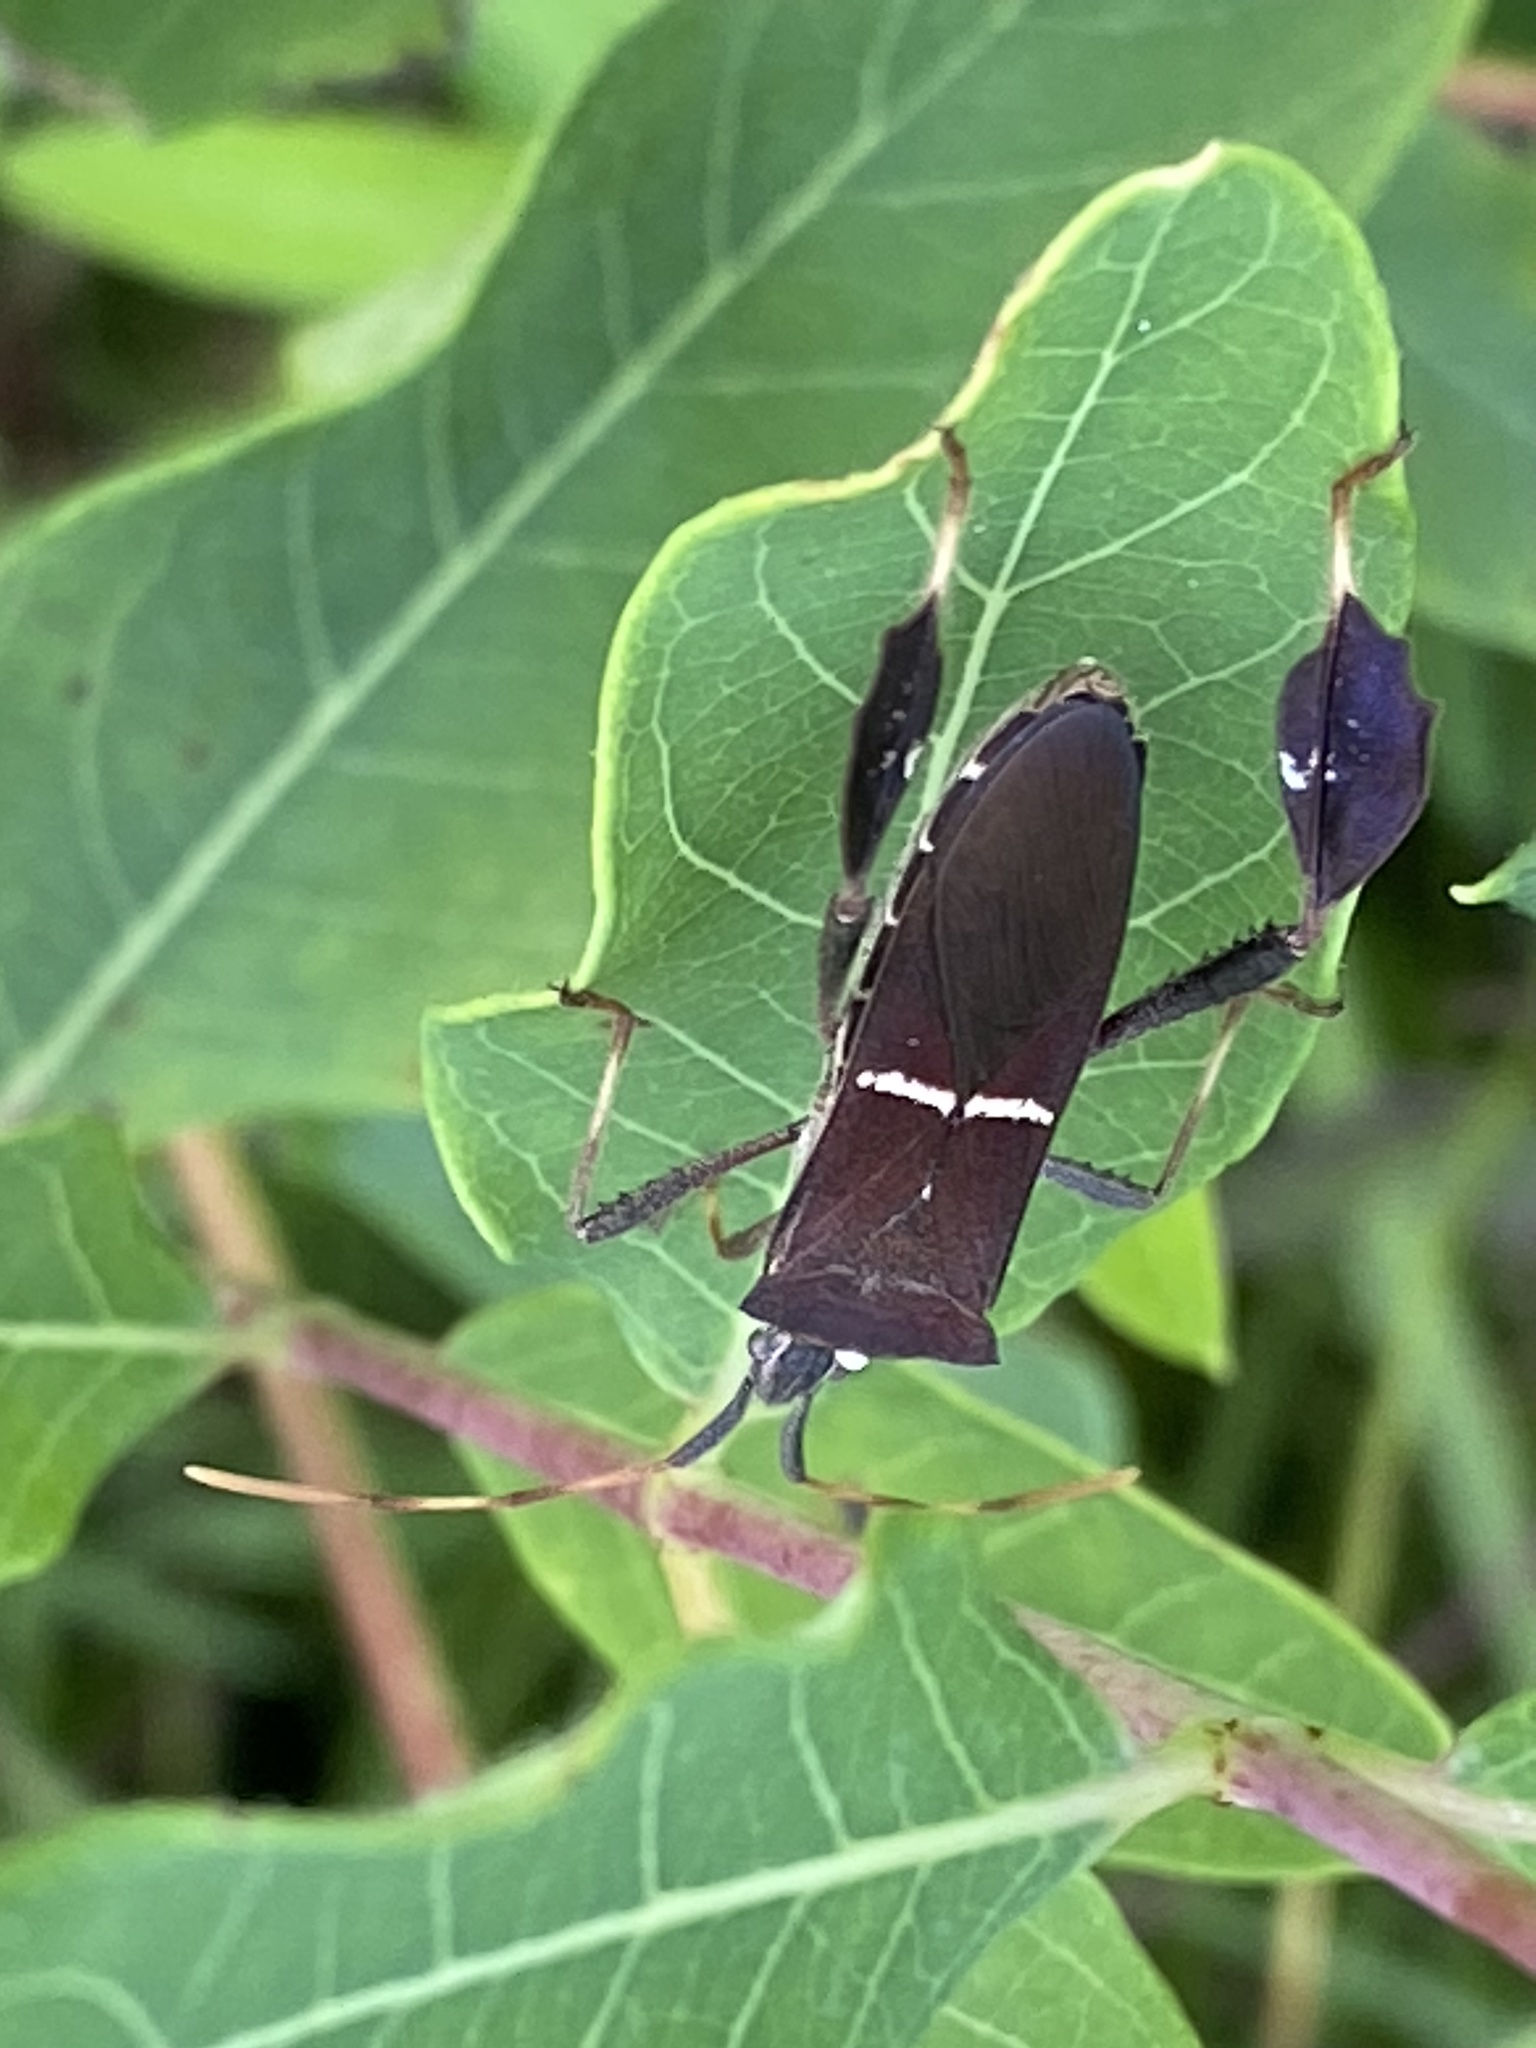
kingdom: Animalia
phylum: Arthropoda
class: Insecta
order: Hemiptera
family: Coreidae
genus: Leptoglossus
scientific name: Leptoglossus phyllopus
